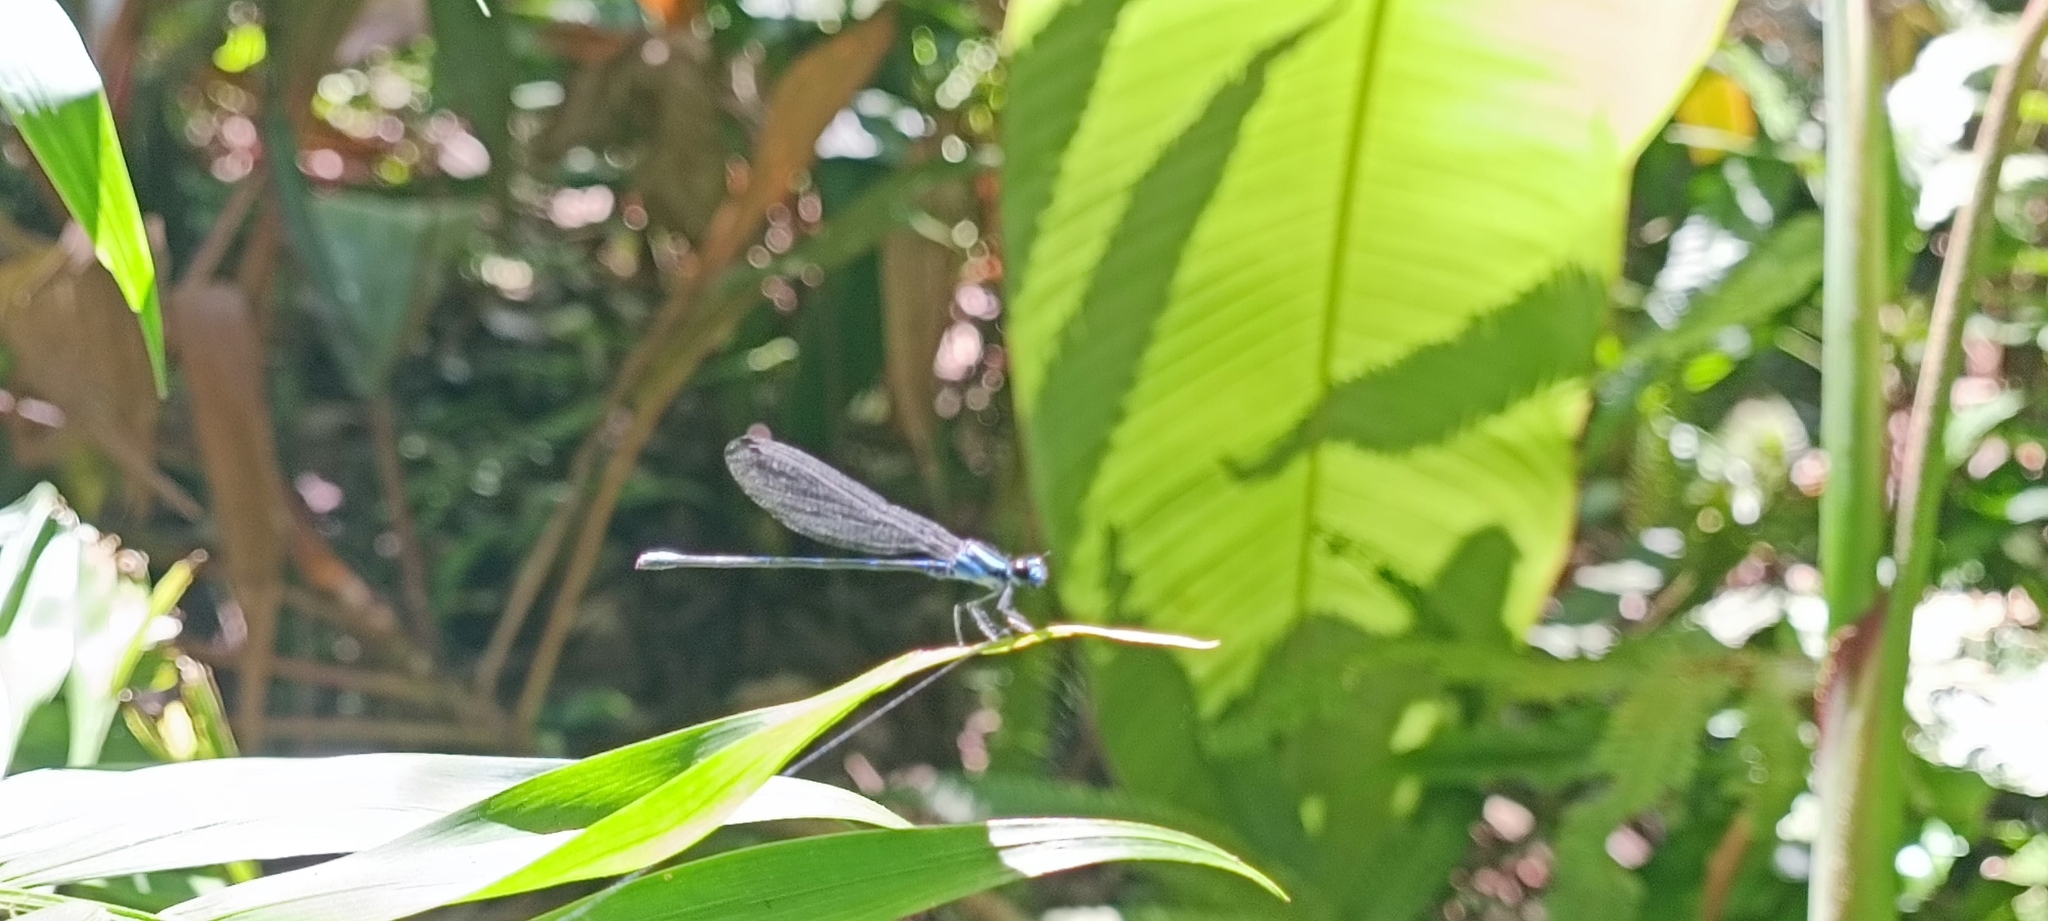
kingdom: Animalia
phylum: Arthropoda
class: Insecta
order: Odonata
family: Coenagrionidae
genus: Argia
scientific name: Argia oculata
